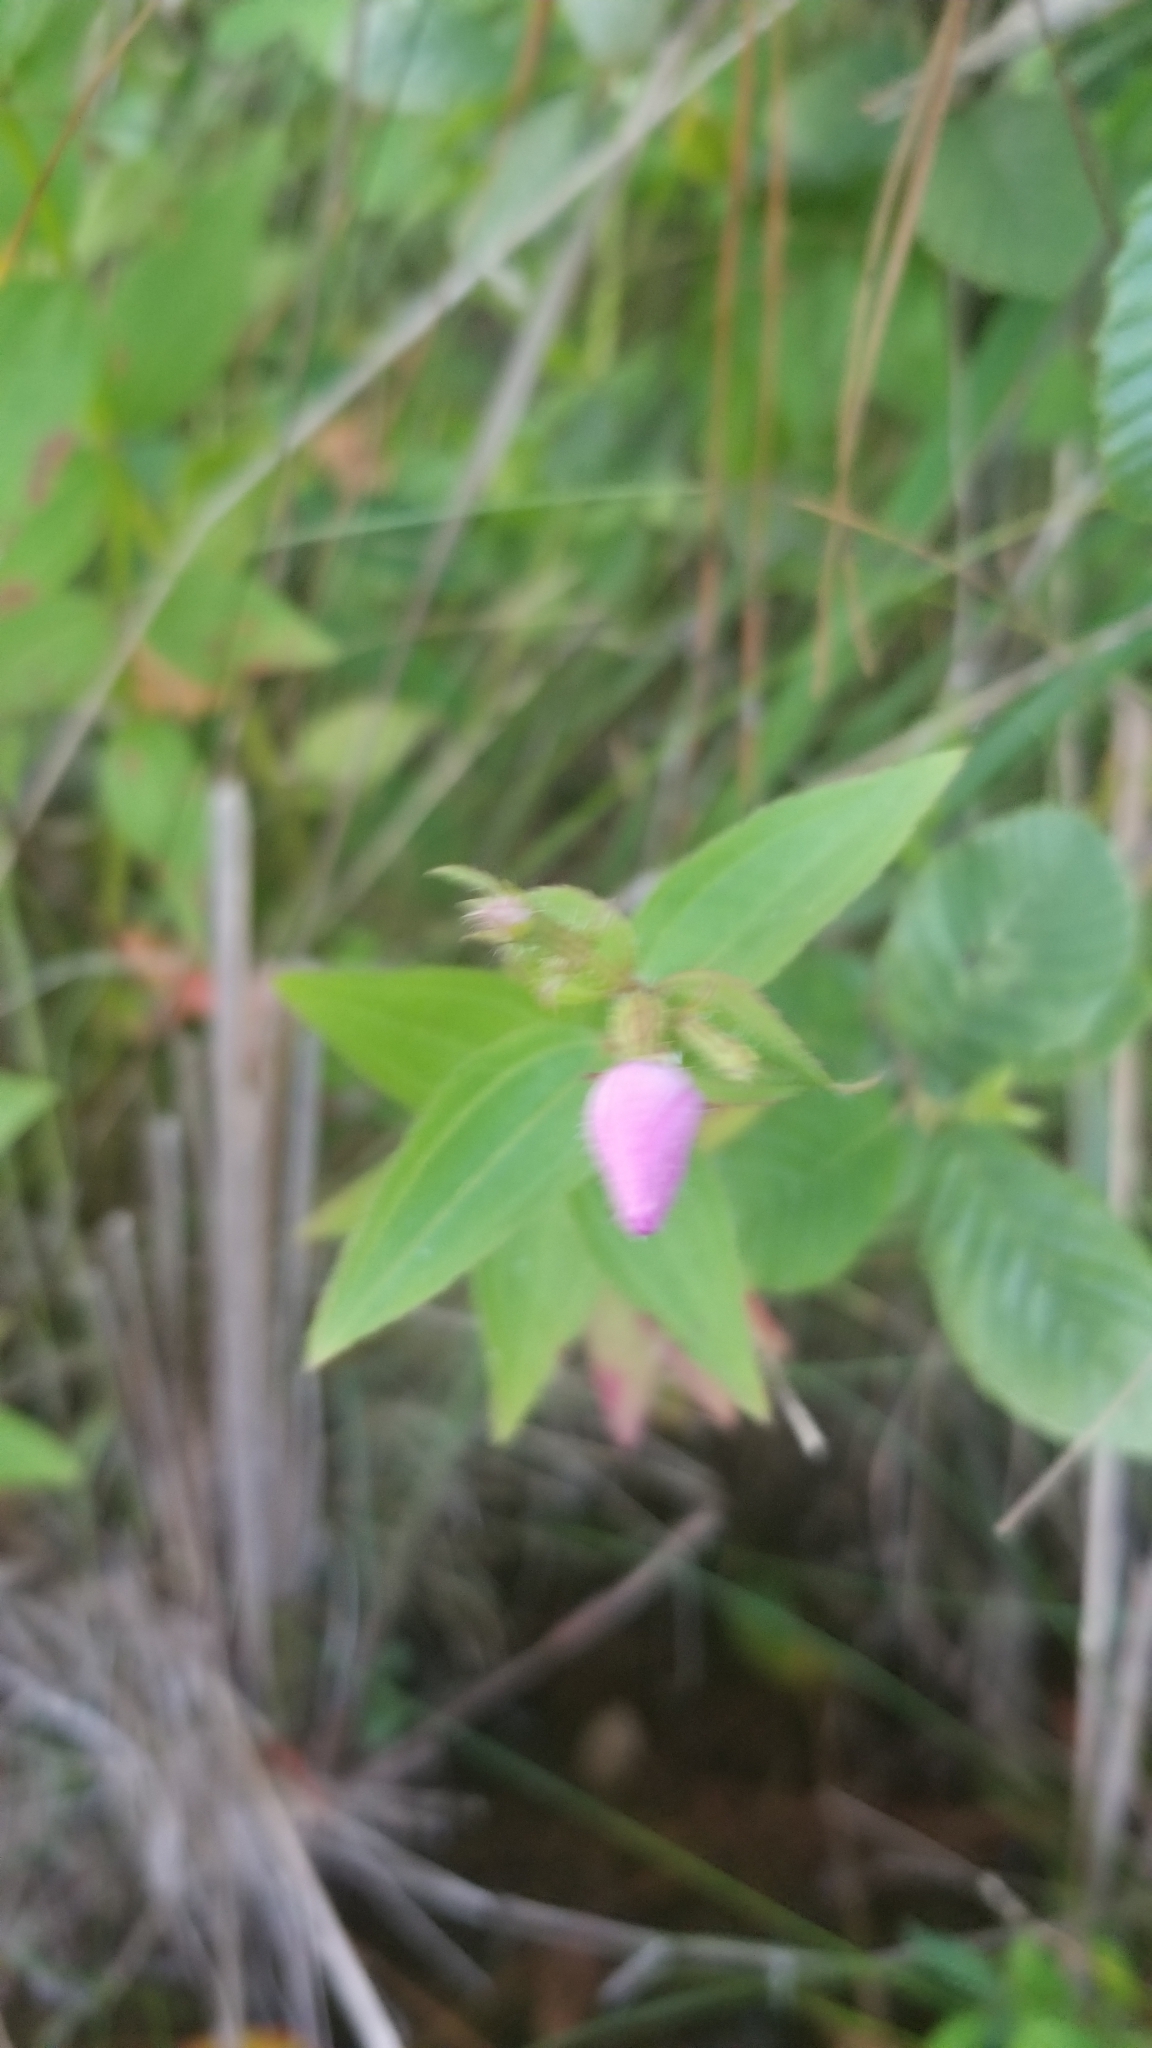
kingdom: Plantae
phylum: Tracheophyta
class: Magnoliopsida
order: Myrtales
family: Melastomataceae
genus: Rhexia
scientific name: Rhexia virginica
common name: Common meadow beauty
